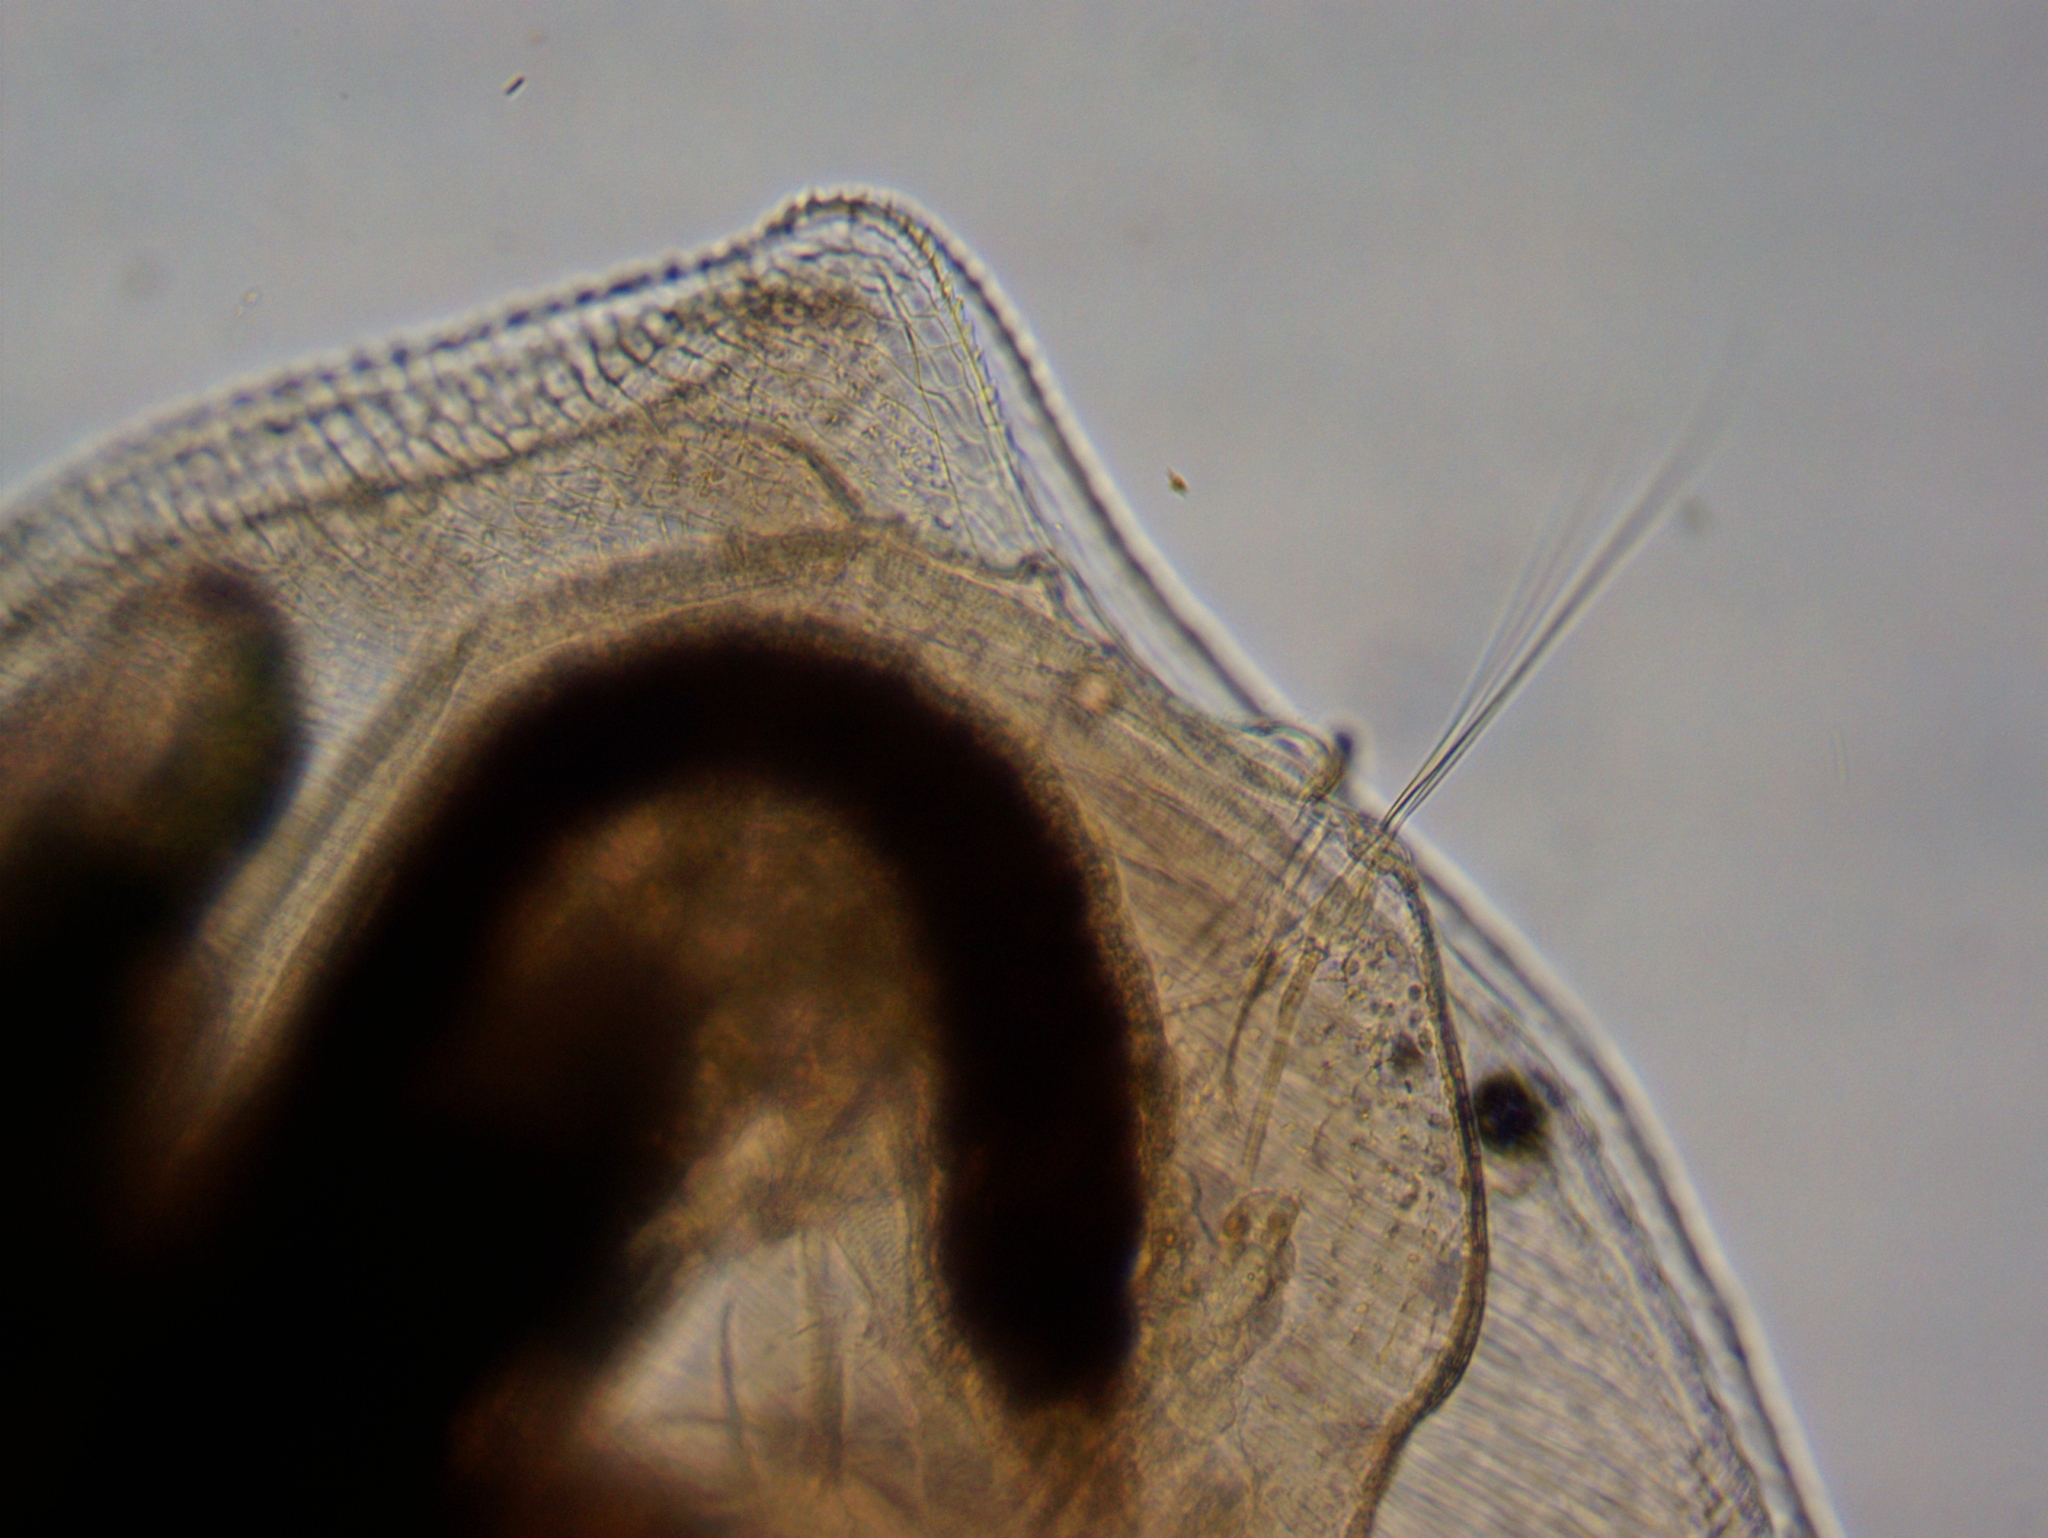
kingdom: Animalia
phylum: Arthropoda
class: Branchiopoda
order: Diplostraca
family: Daphniidae
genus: Simocephalus
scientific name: Simocephalus
